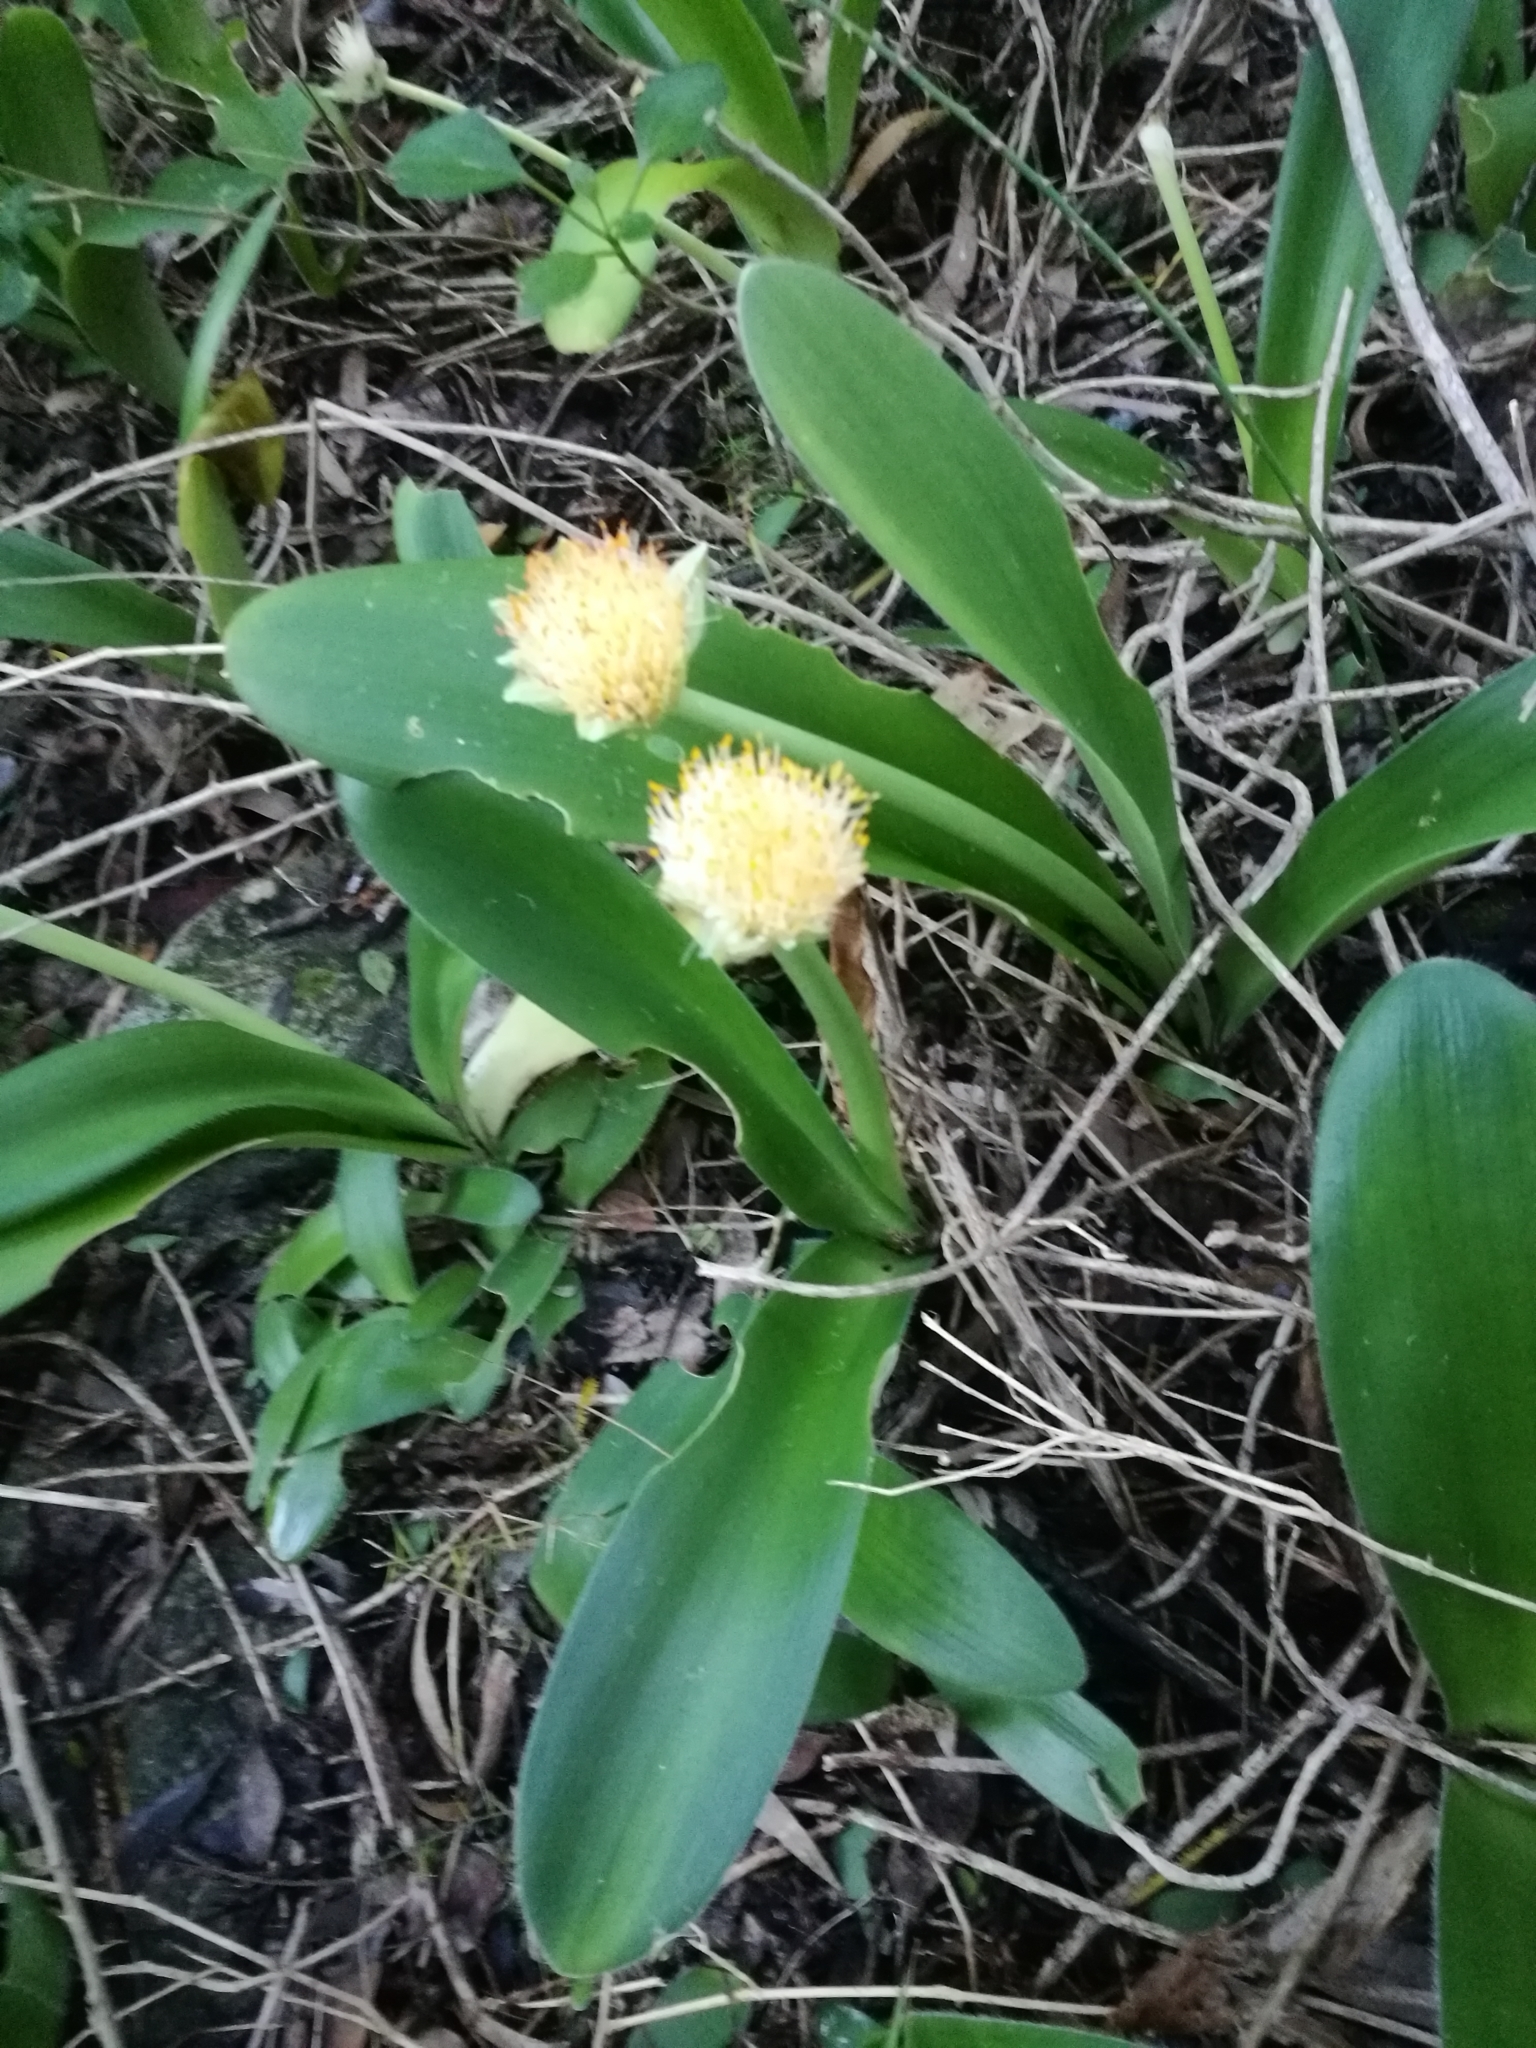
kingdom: Plantae
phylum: Tracheophyta
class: Liliopsida
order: Asparagales
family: Amaryllidaceae
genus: Haemanthus
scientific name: Haemanthus albiflos
